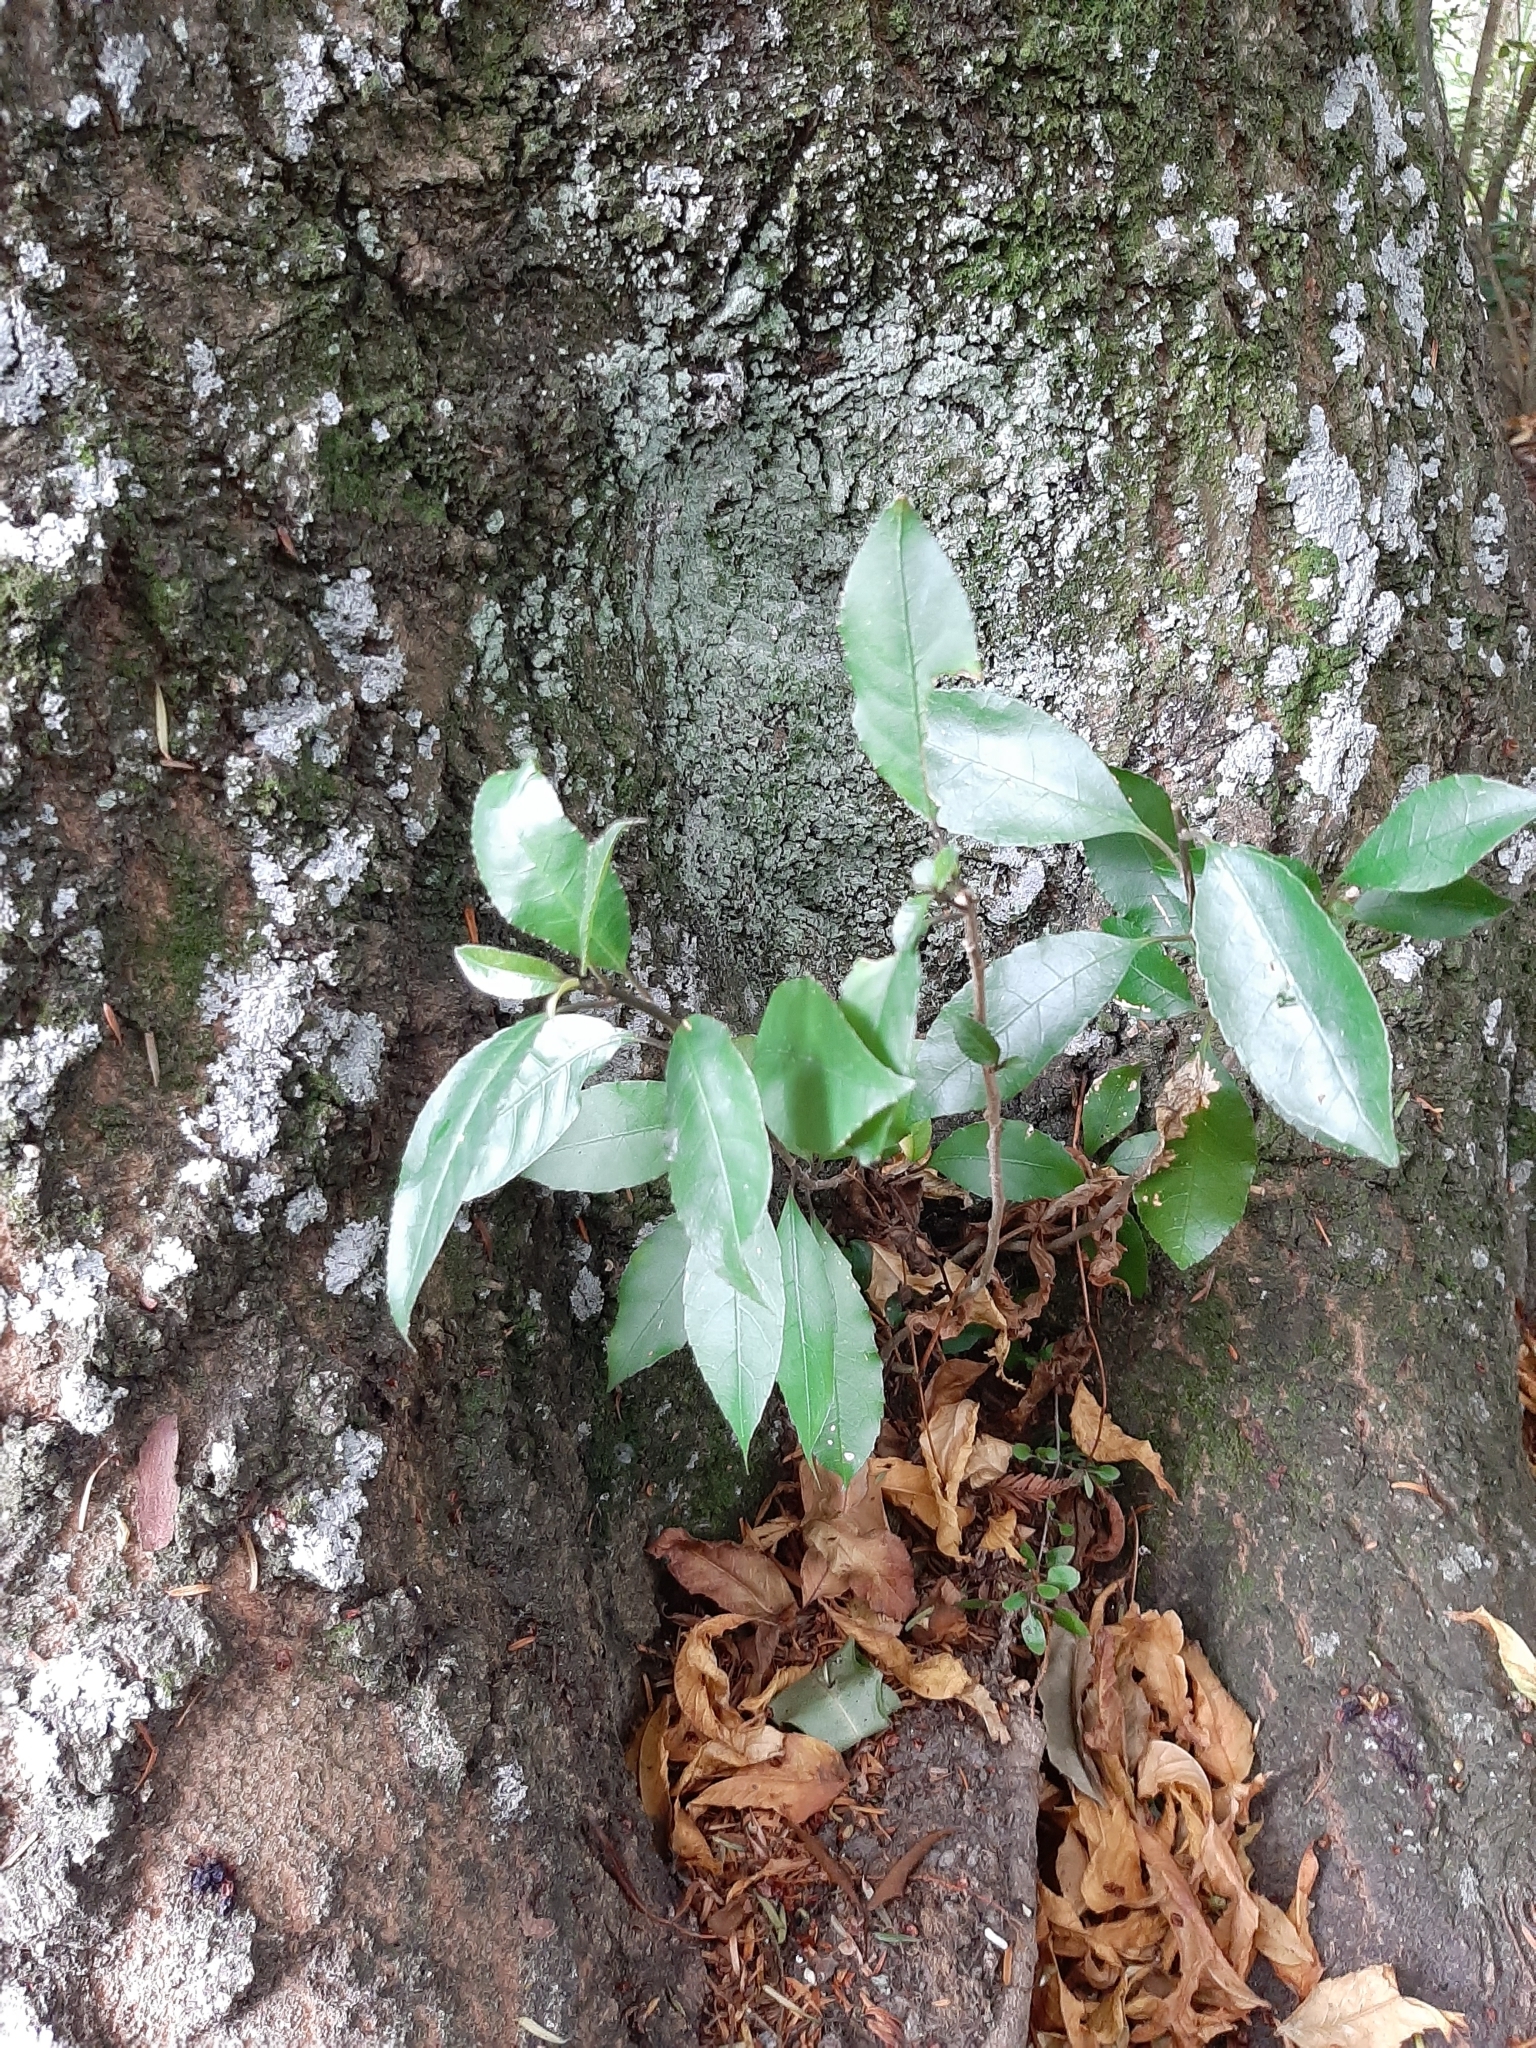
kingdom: Plantae
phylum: Tracheophyta
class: Magnoliopsida
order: Malpighiales
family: Violaceae
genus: Melicytus
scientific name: Melicytus ramiflorus
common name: Mahoe
